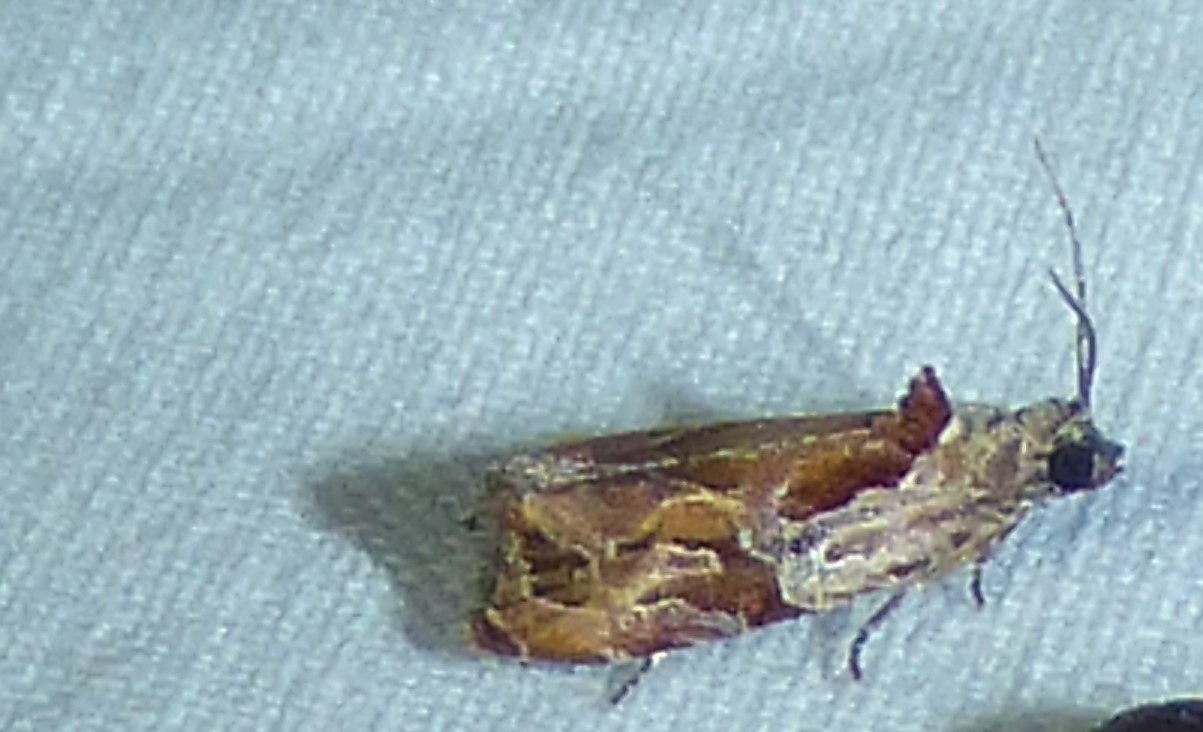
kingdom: Animalia
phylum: Arthropoda
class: Insecta
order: Lepidoptera
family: Tortricidae
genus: Zomaria
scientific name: Zomaria interruptolineana
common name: Broken-lined zomaria moth
